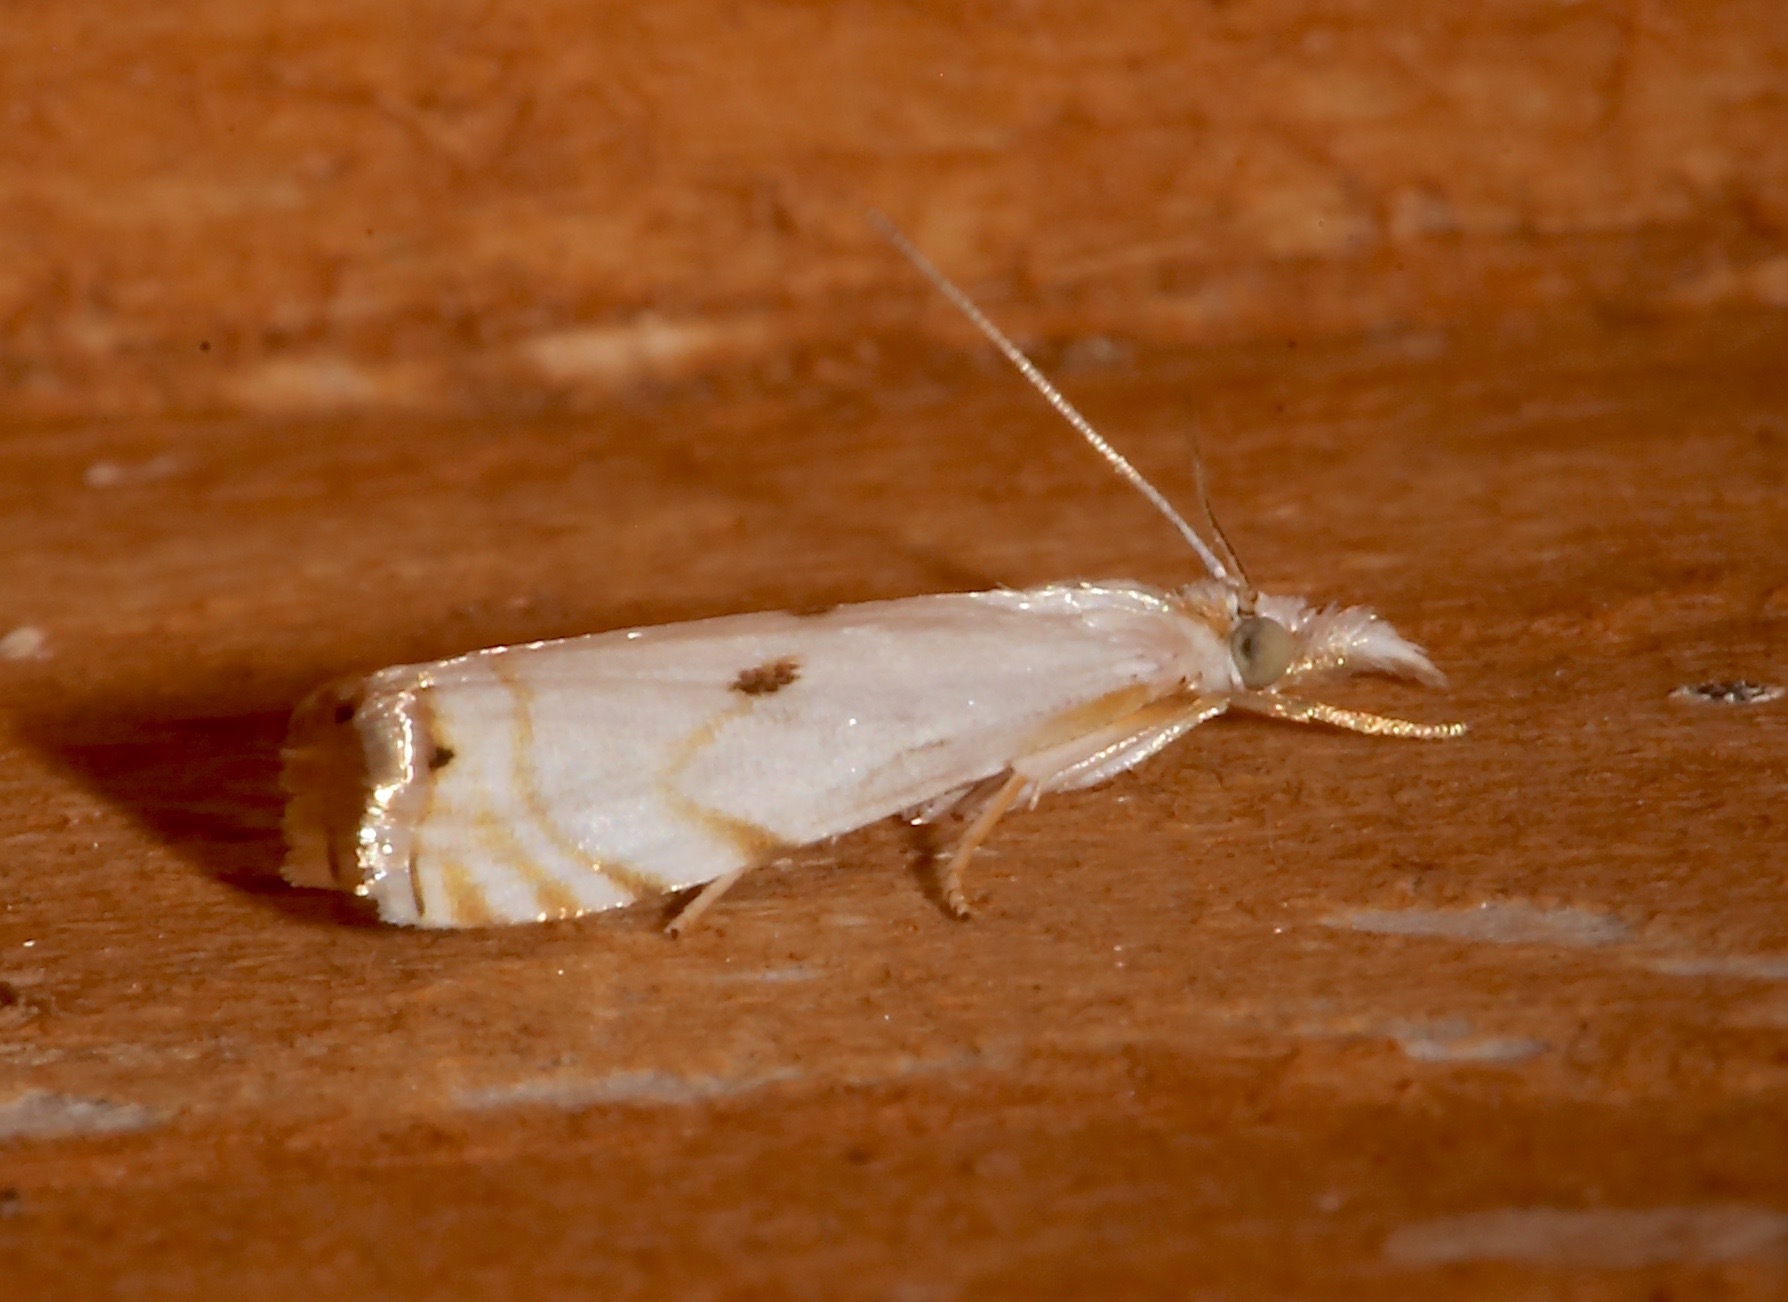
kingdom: Animalia
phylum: Arthropoda
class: Insecta
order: Lepidoptera
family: Crambidae
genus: Microcrambus
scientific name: Microcrambus biguttellus
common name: Gold-stripe grass-veneer moth
